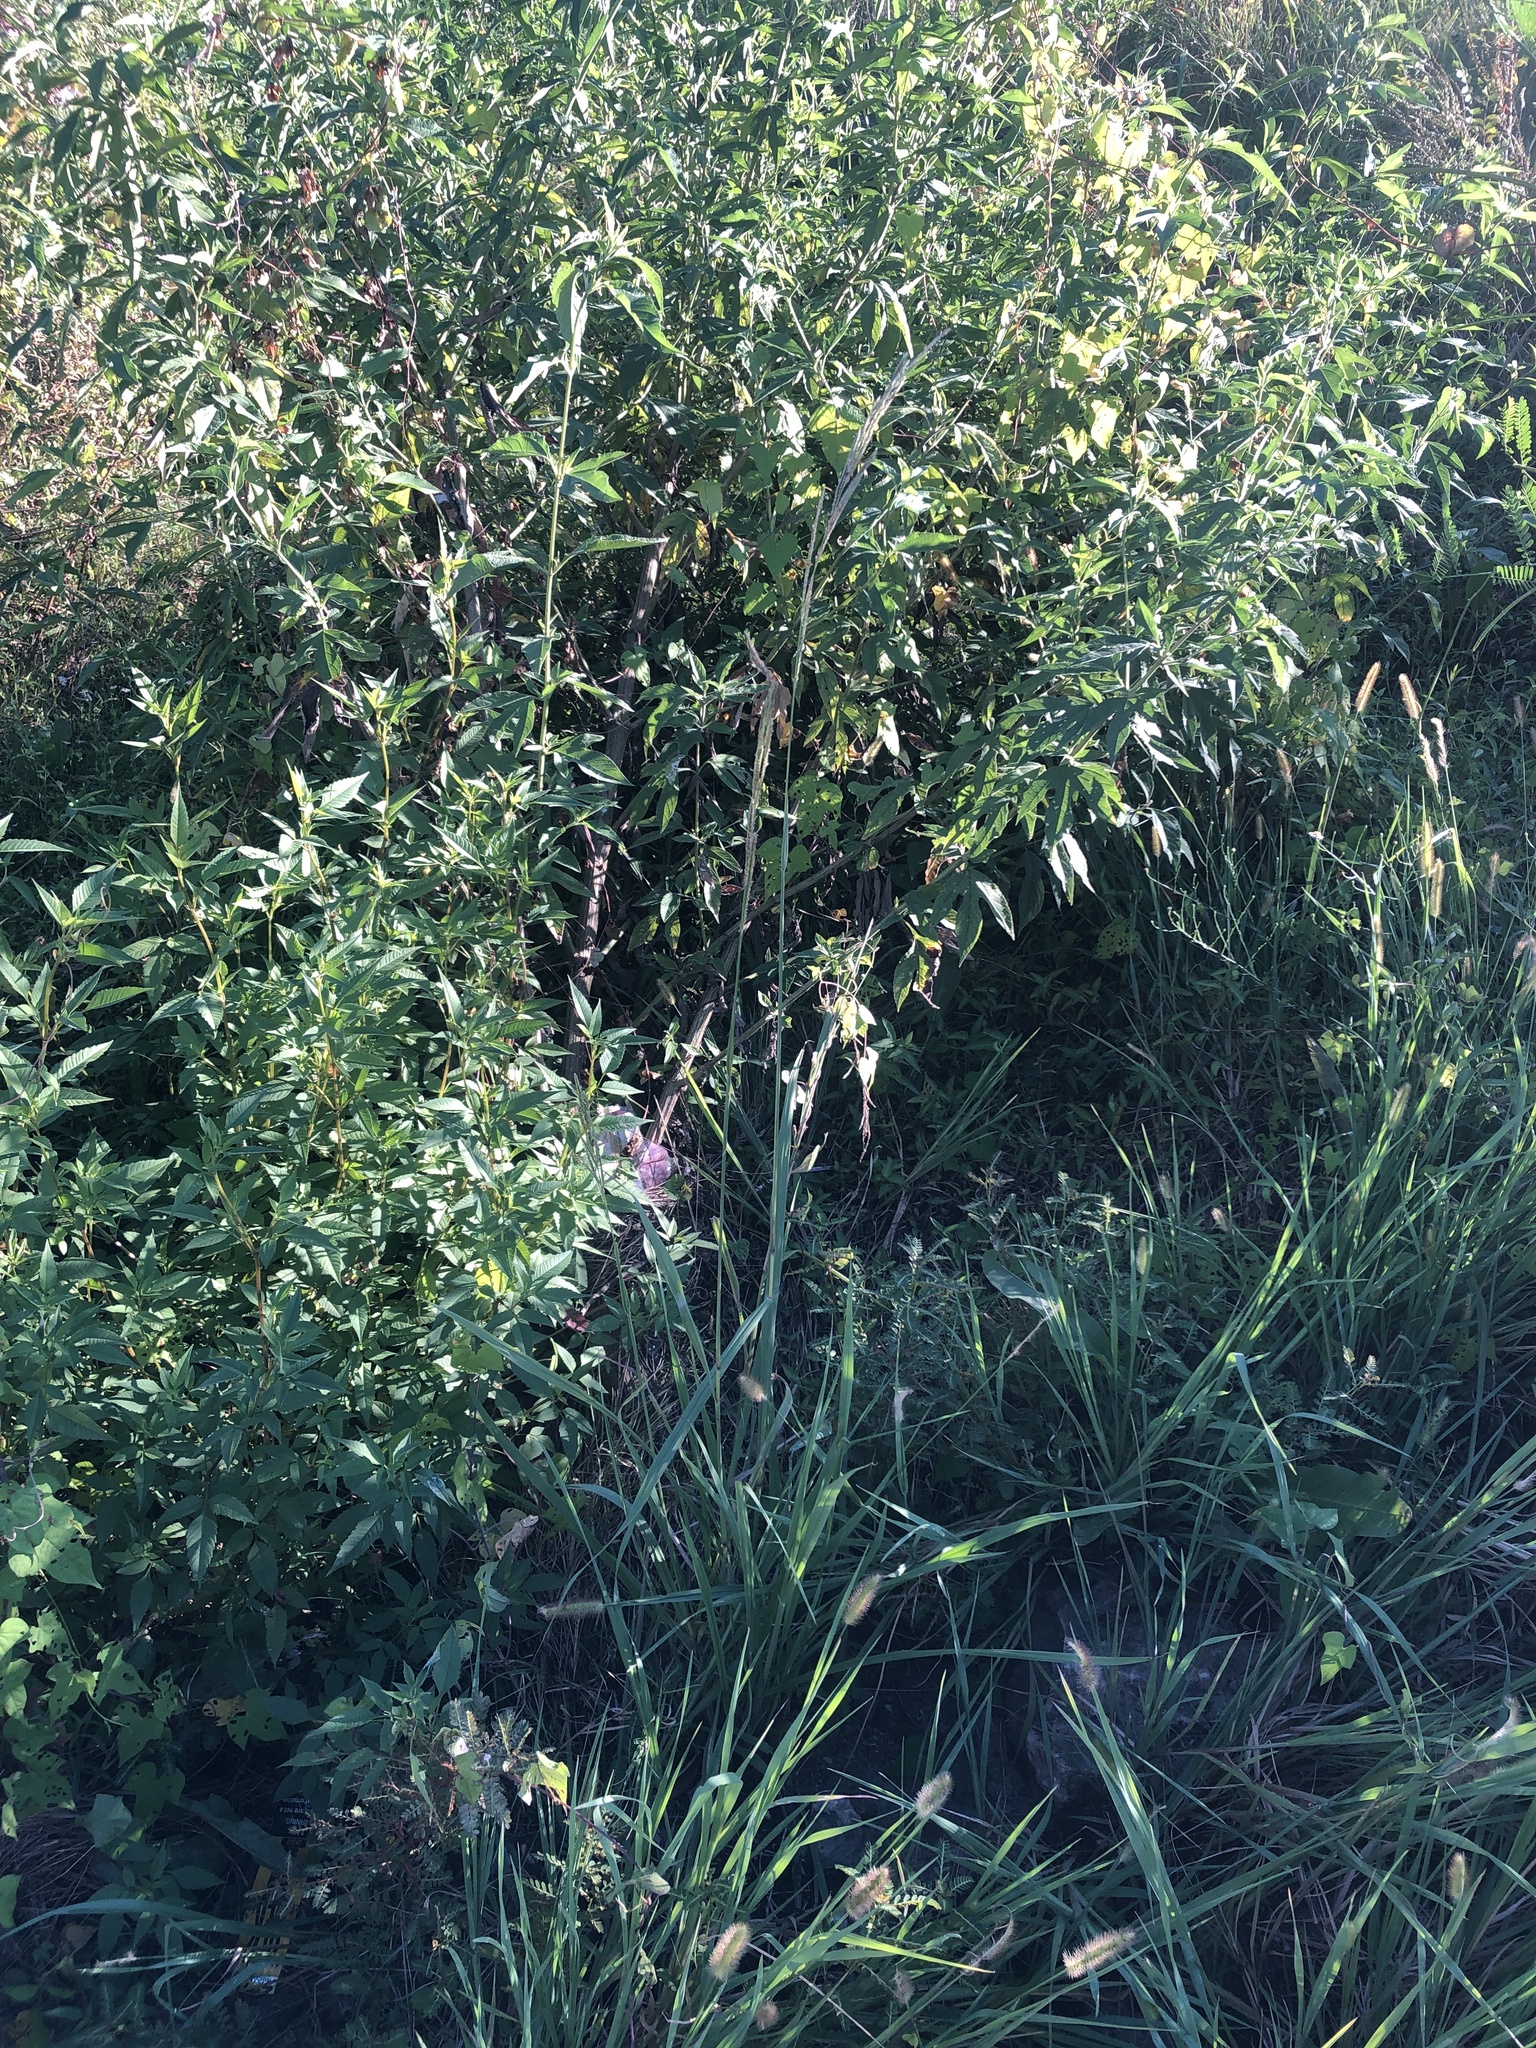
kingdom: Plantae
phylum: Tracheophyta
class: Liliopsida
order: Poales
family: Poaceae
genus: Paspalum
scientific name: Paspalum urvillei
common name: Vasey's grass
